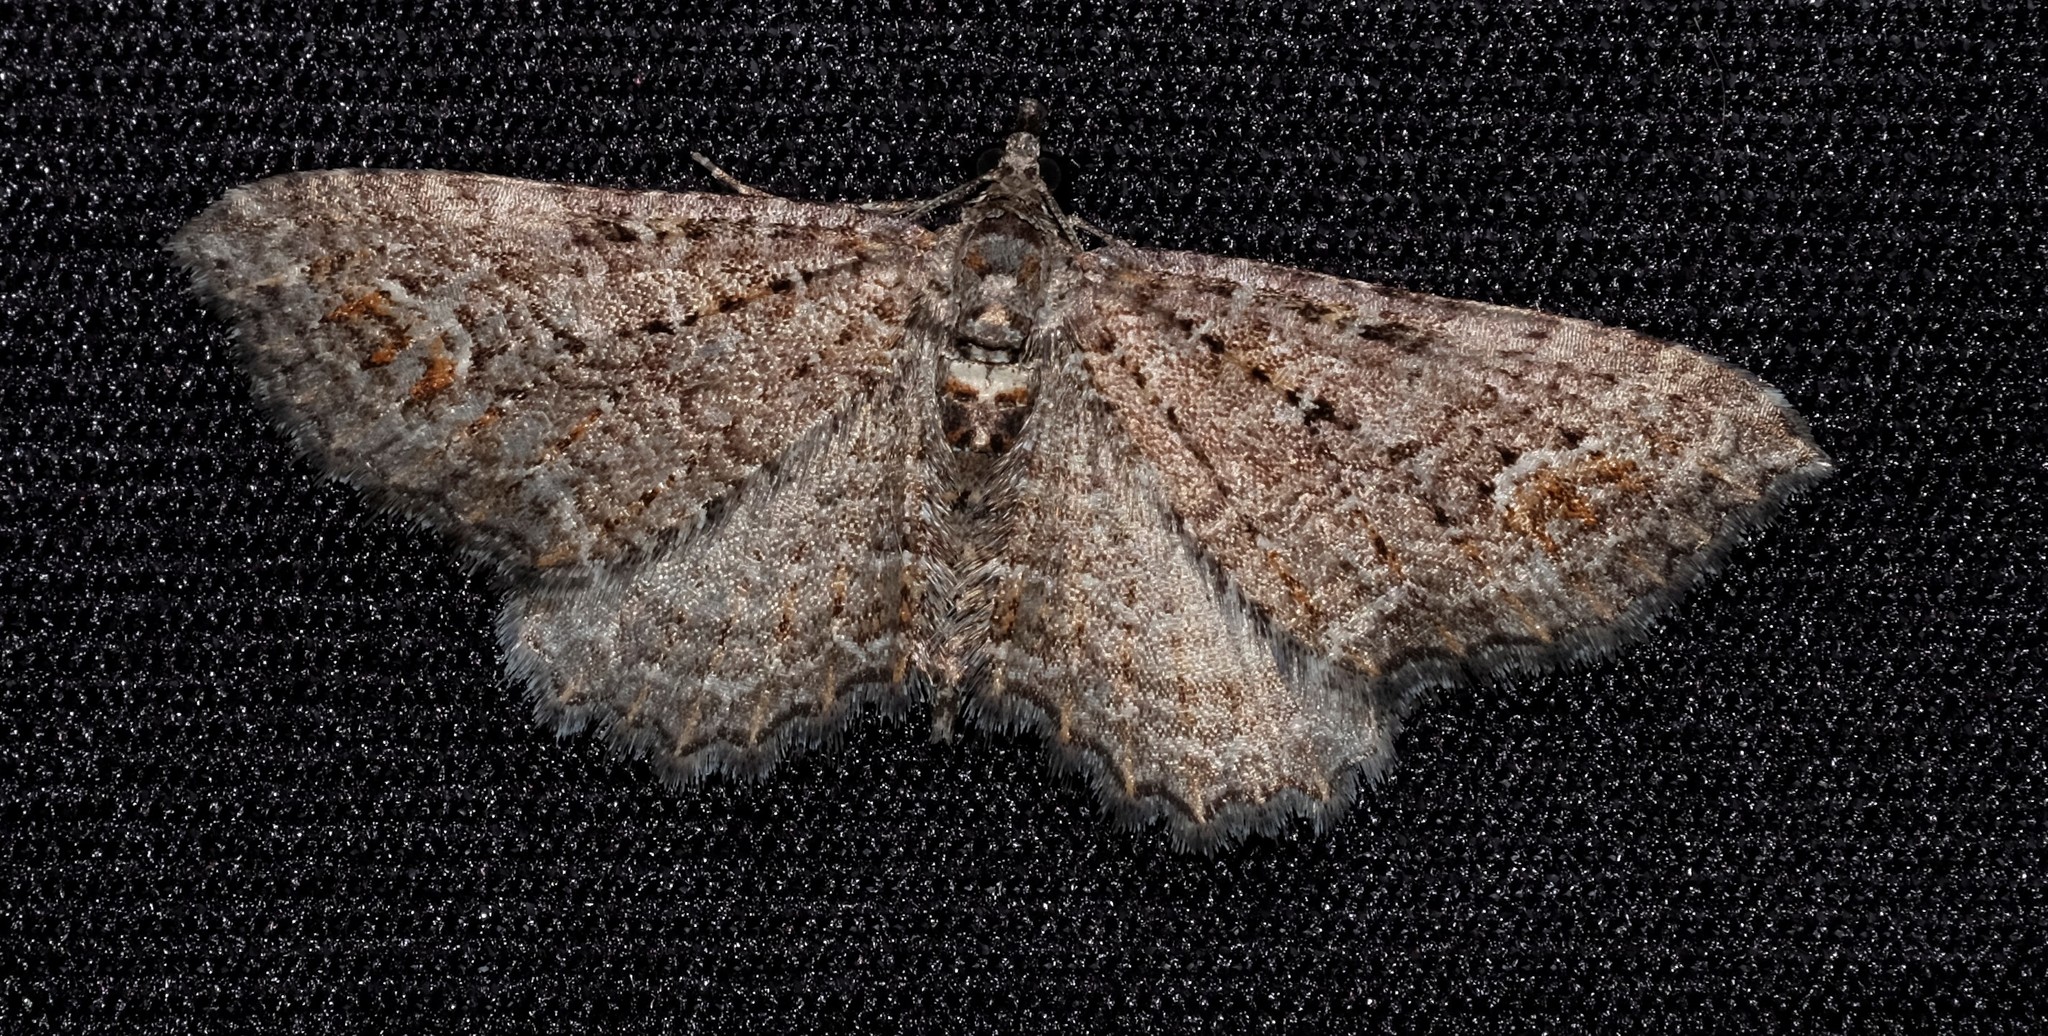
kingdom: Animalia
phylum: Arthropoda
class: Insecta
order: Lepidoptera
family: Geometridae
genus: Xanthorhoe
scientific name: Xanthorhoe xerodes
